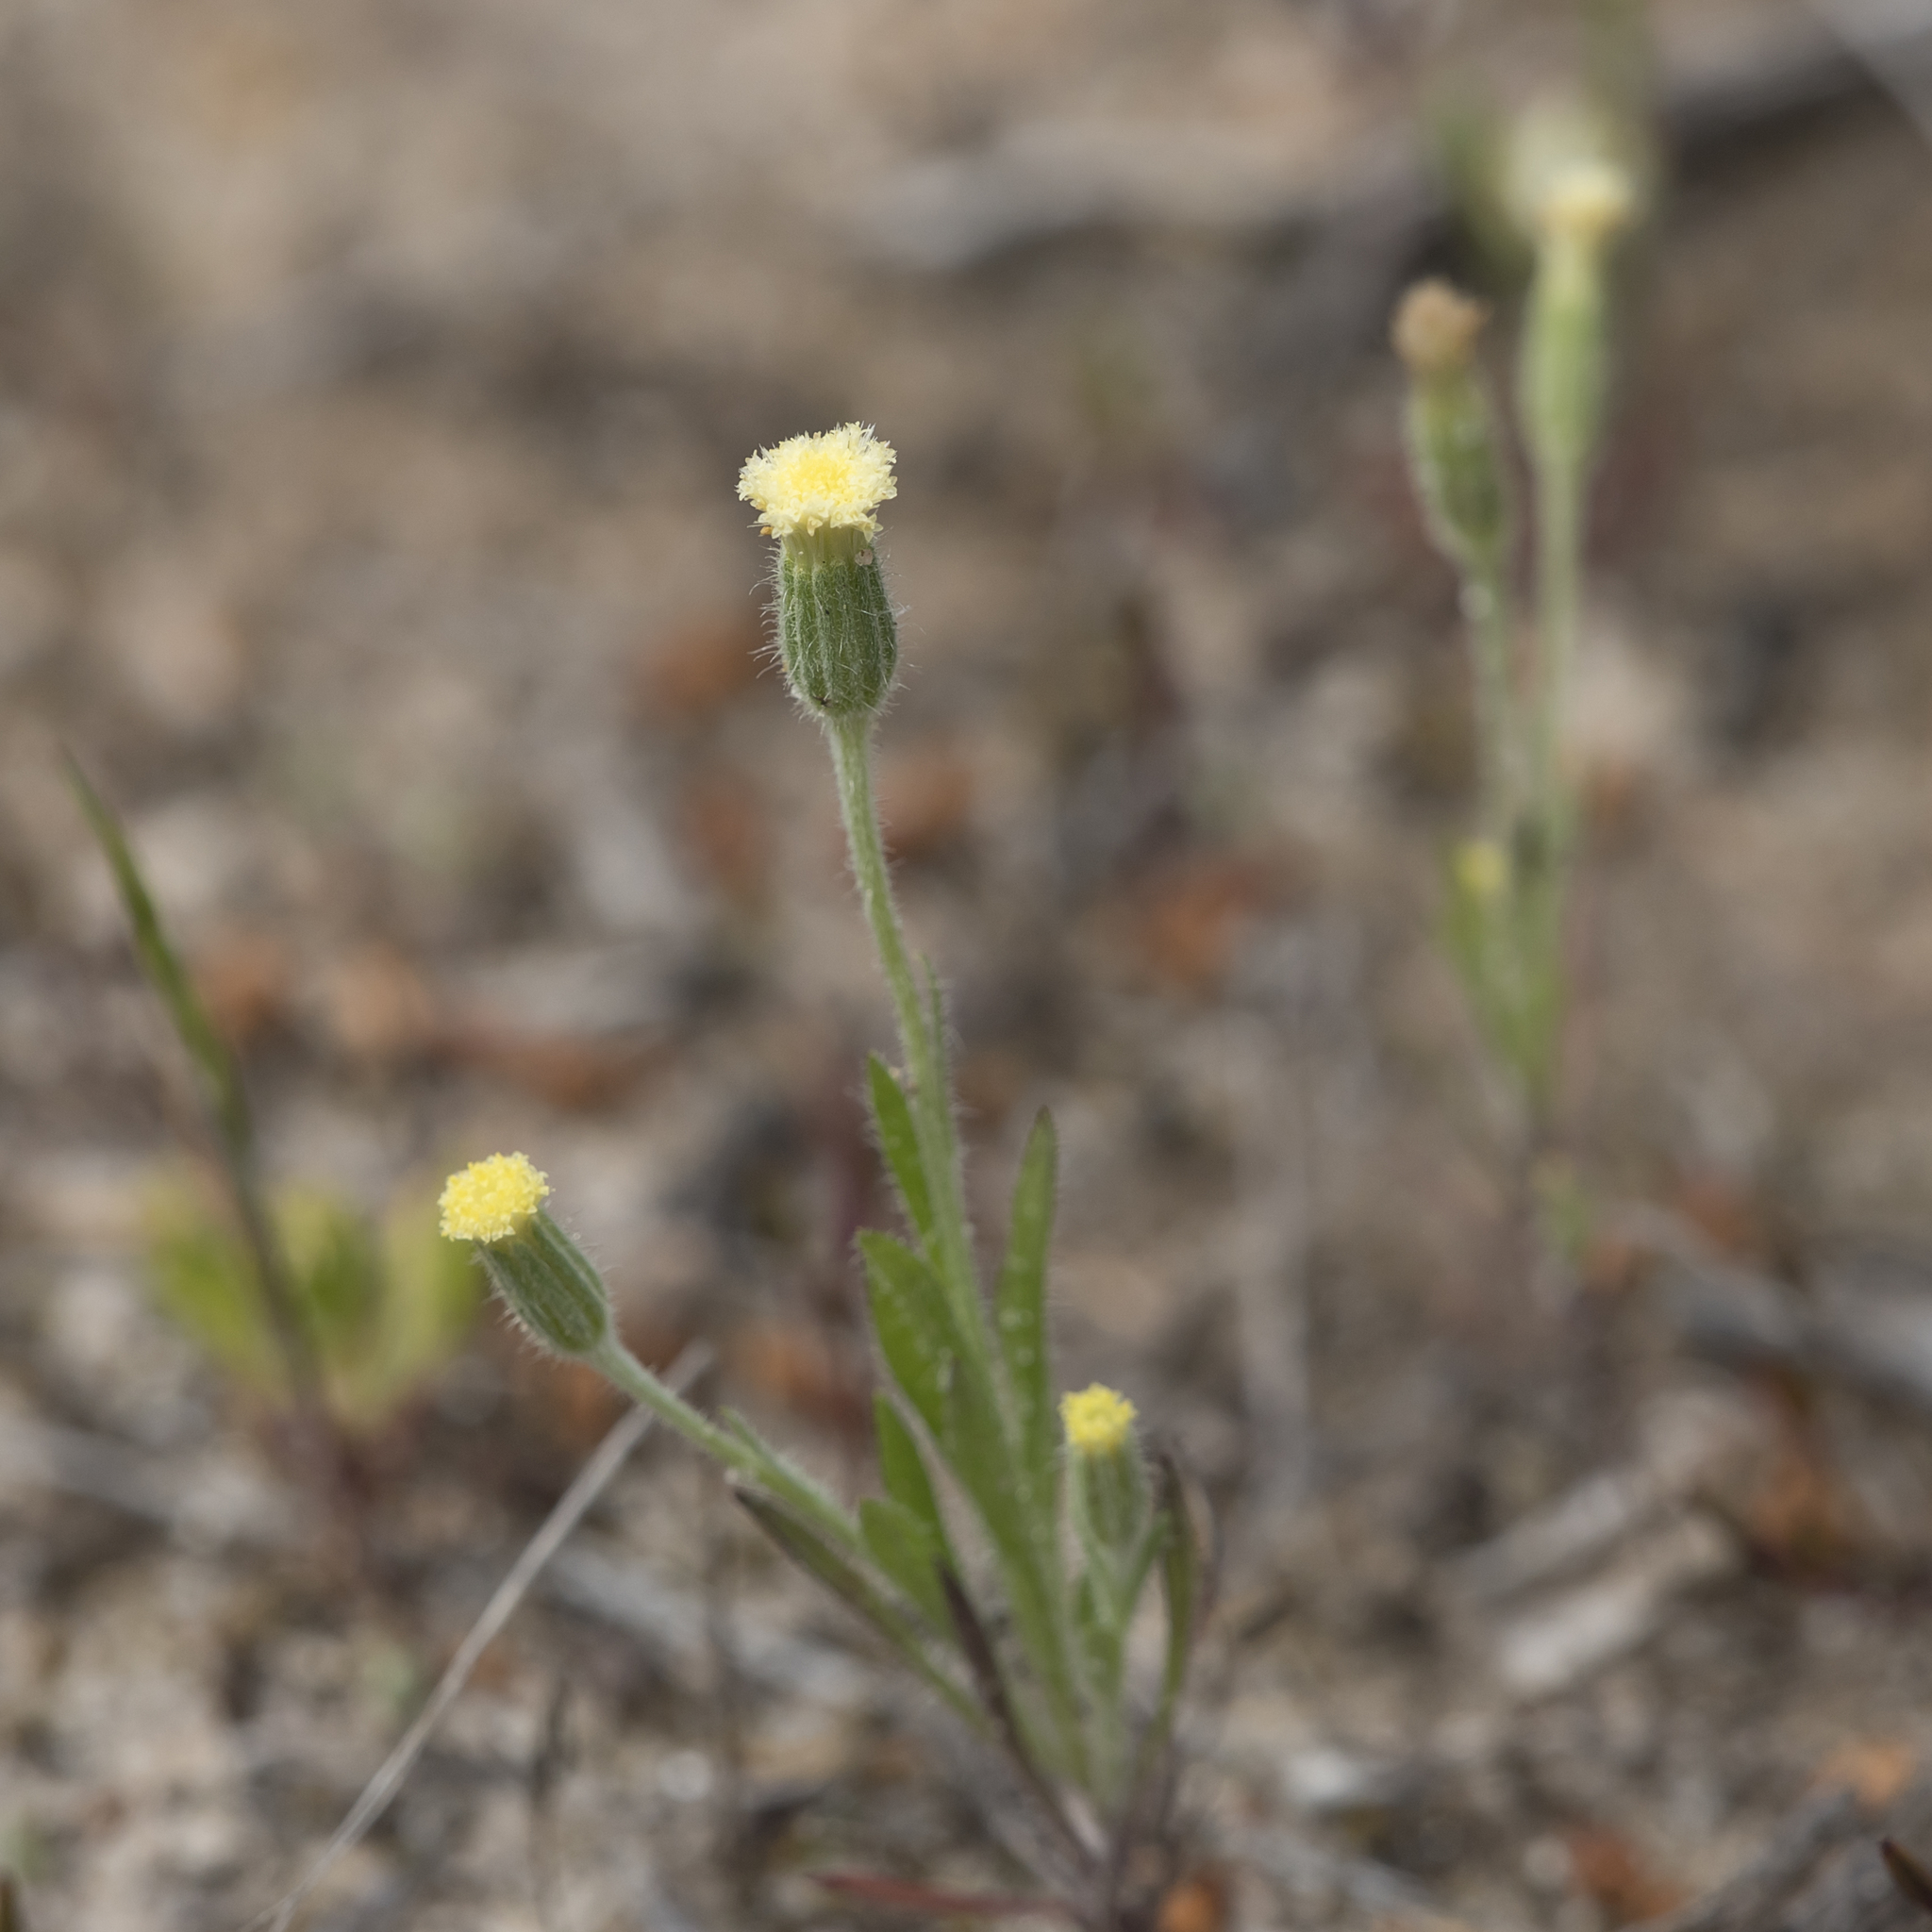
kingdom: Plantae
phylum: Tracheophyta
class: Magnoliopsida
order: Asterales
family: Asteraceae
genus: Millotia
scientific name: Millotia tenuifolia
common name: Soft millotia
